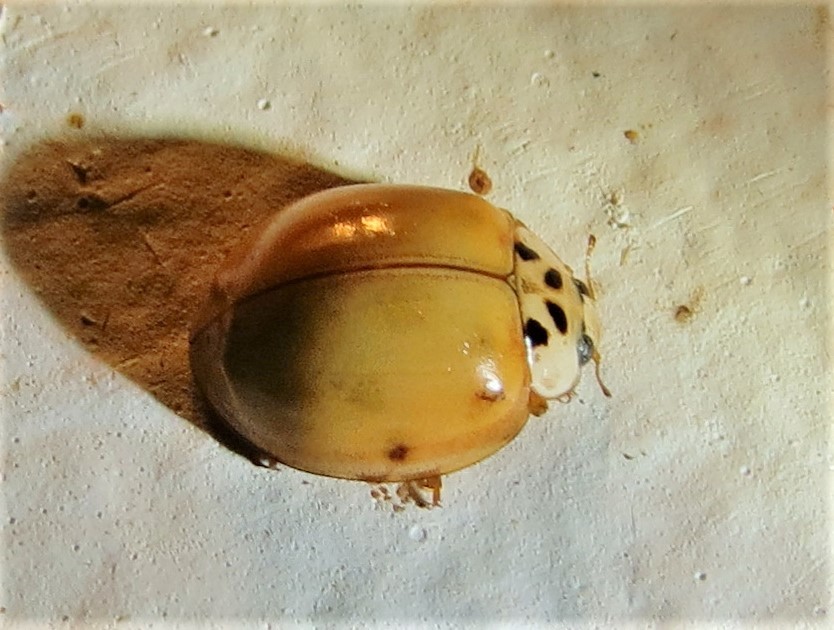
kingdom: Animalia
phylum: Arthropoda
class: Insecta
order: Coleoptera
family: Coccinellidae
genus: Harmonia
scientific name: Harmonia axyridis
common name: Harlequin ladybird
